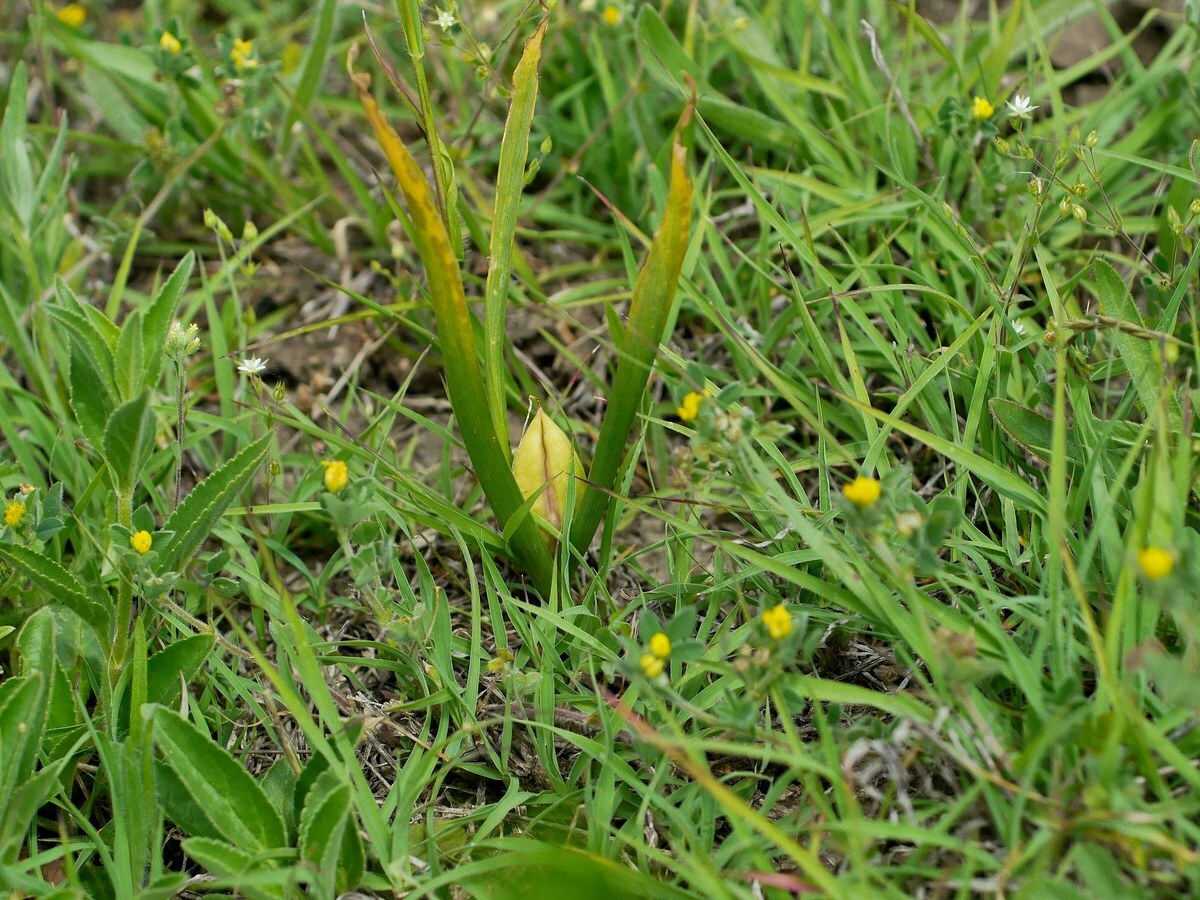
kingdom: Plantae
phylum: Tracheophyta
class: Liliopsida
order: Liliales
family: Colchicaceae
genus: Colchicum
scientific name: Colchicum bulbocodium
